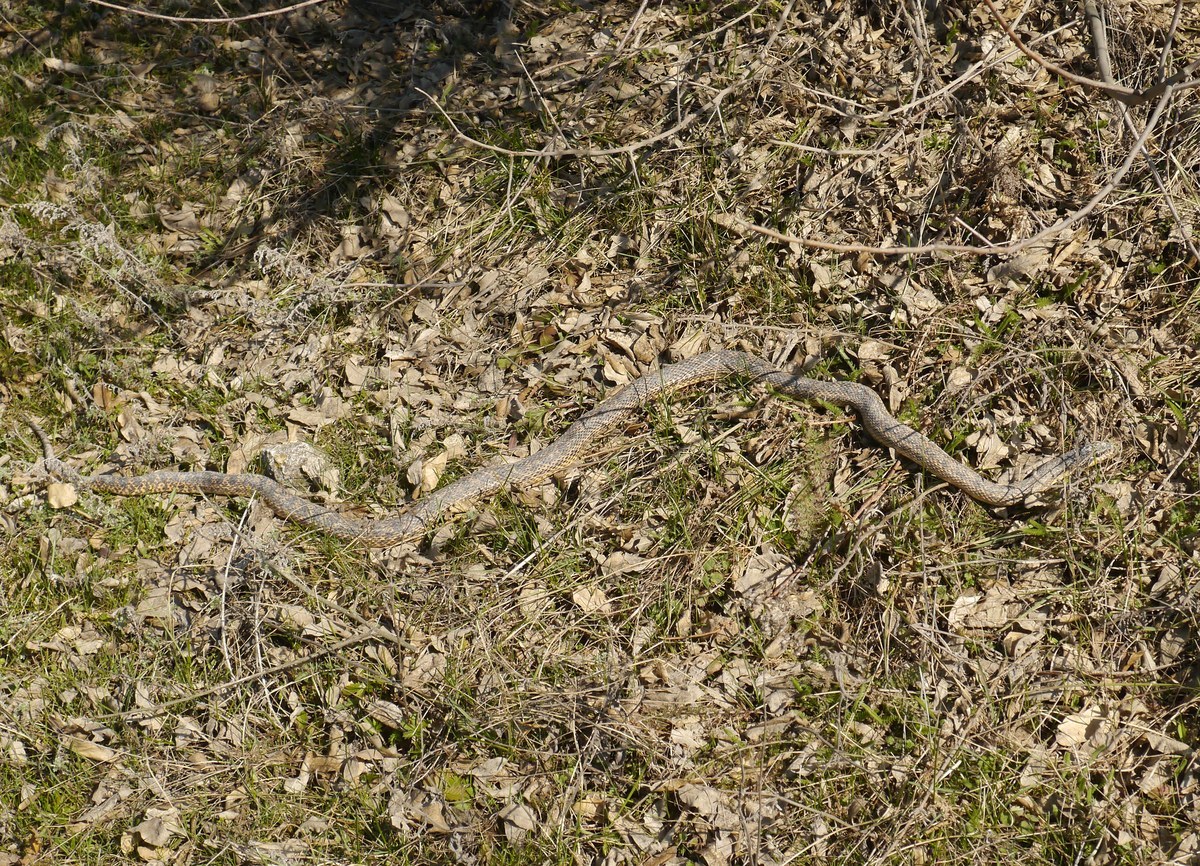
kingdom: Animalia
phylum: Chordata
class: Squamata
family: Colubridae
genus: Elaphe
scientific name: Elaphe sauromates
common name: Eastern four-lined ratsnake
